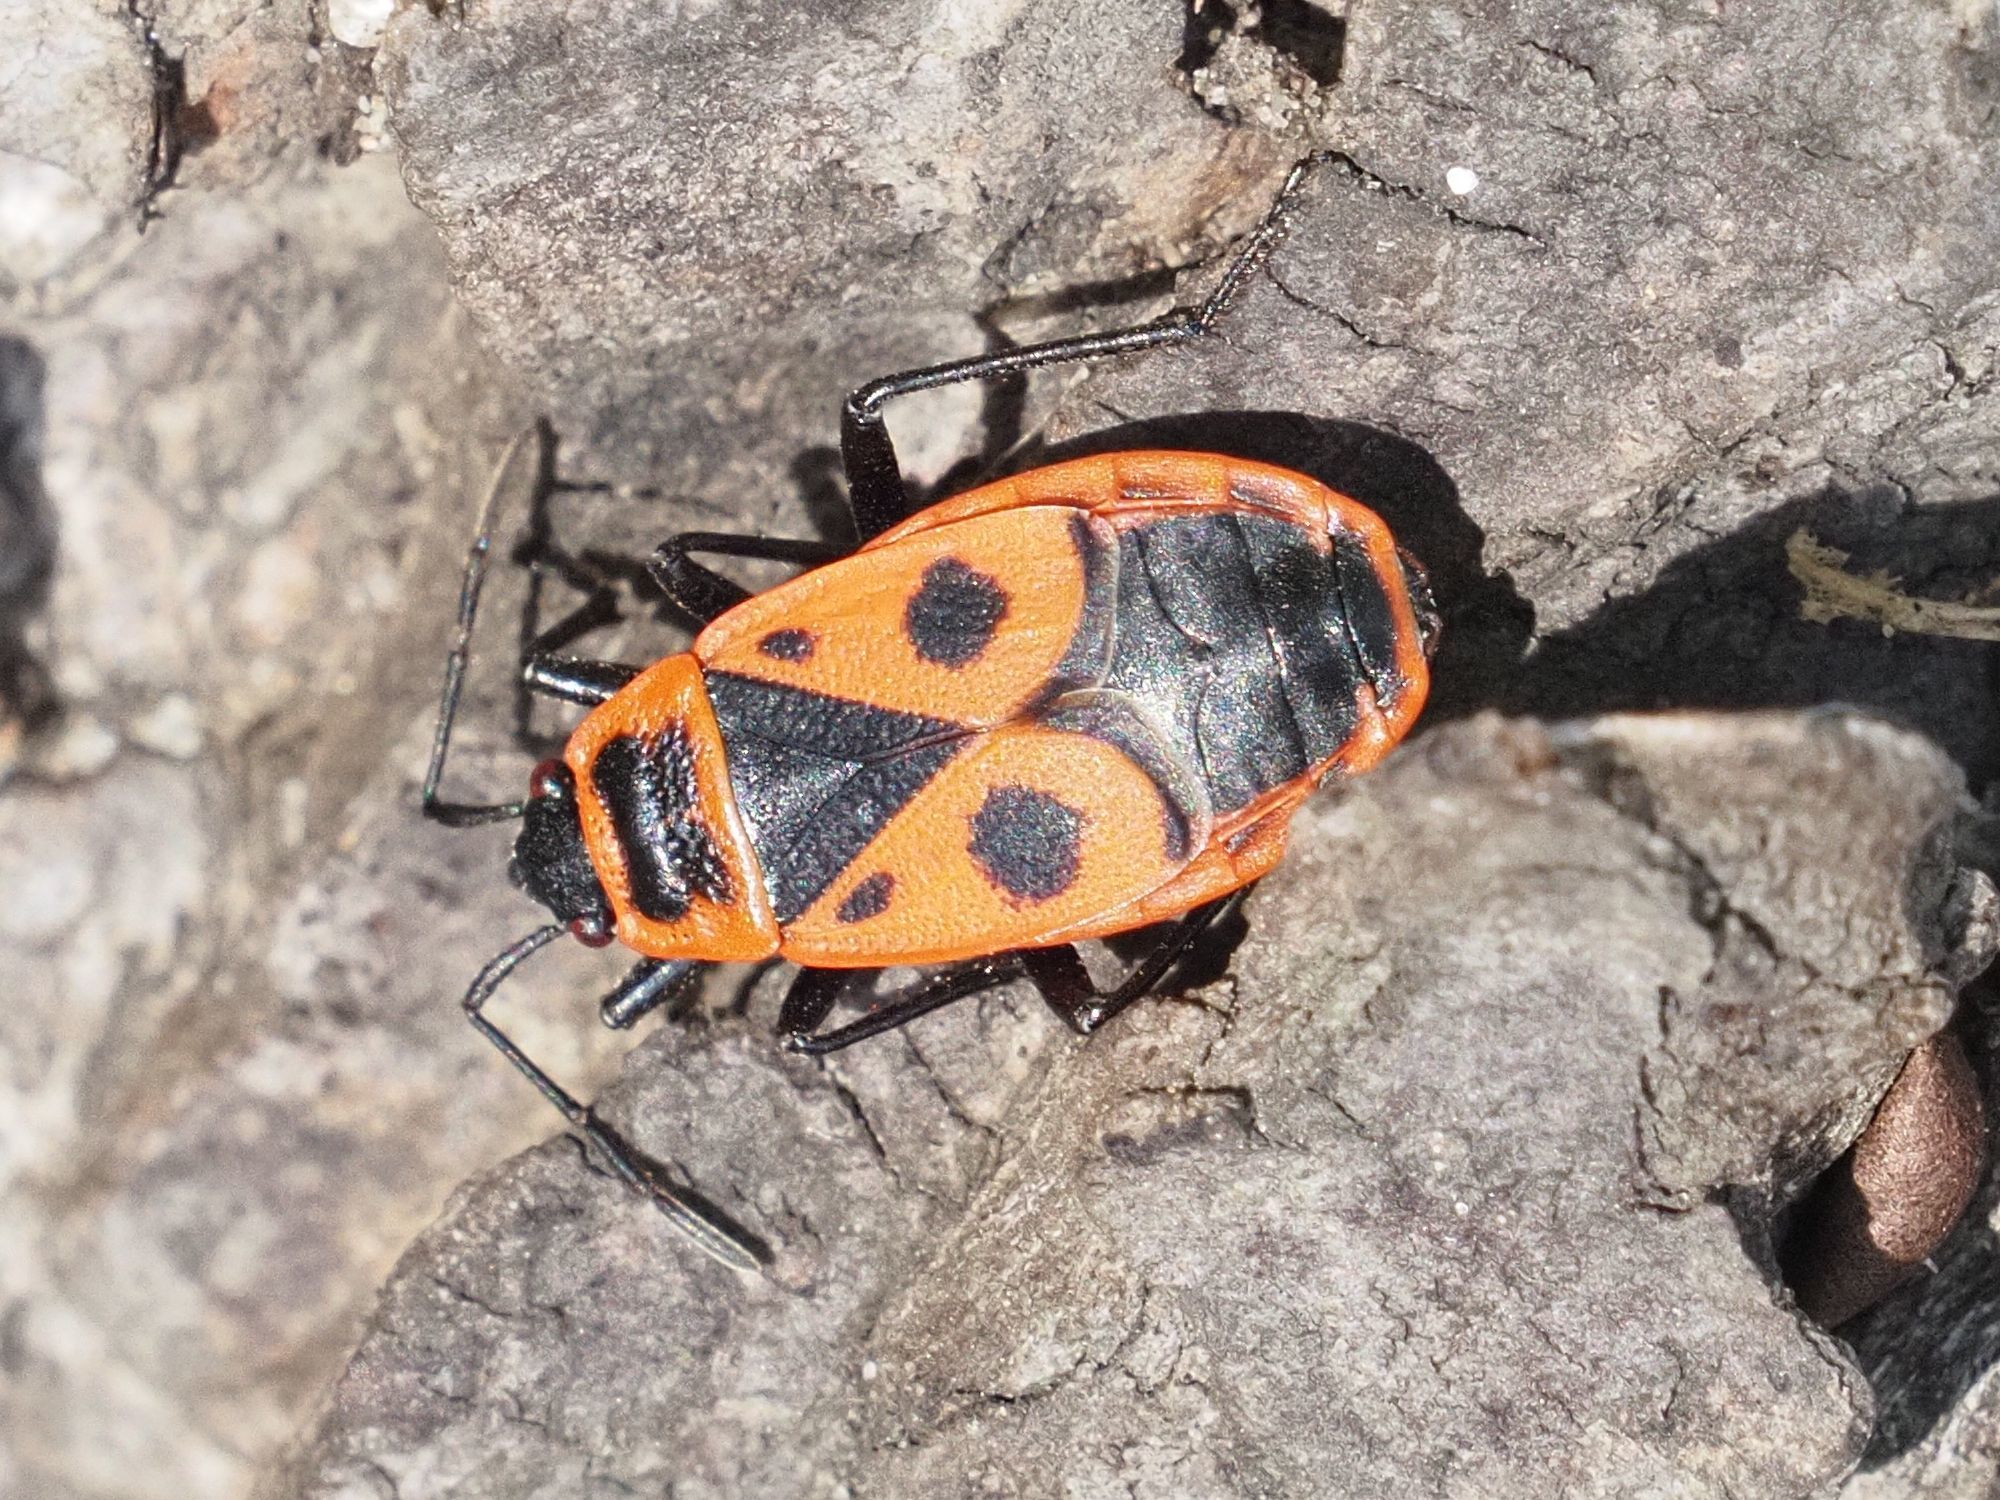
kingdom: Animalia
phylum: Arthropoda
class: Insecta
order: Hemiptera
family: Pyrrhocoridae
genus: Pyrrhocoris
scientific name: Pyrrhocoris apterus
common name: Firebug
